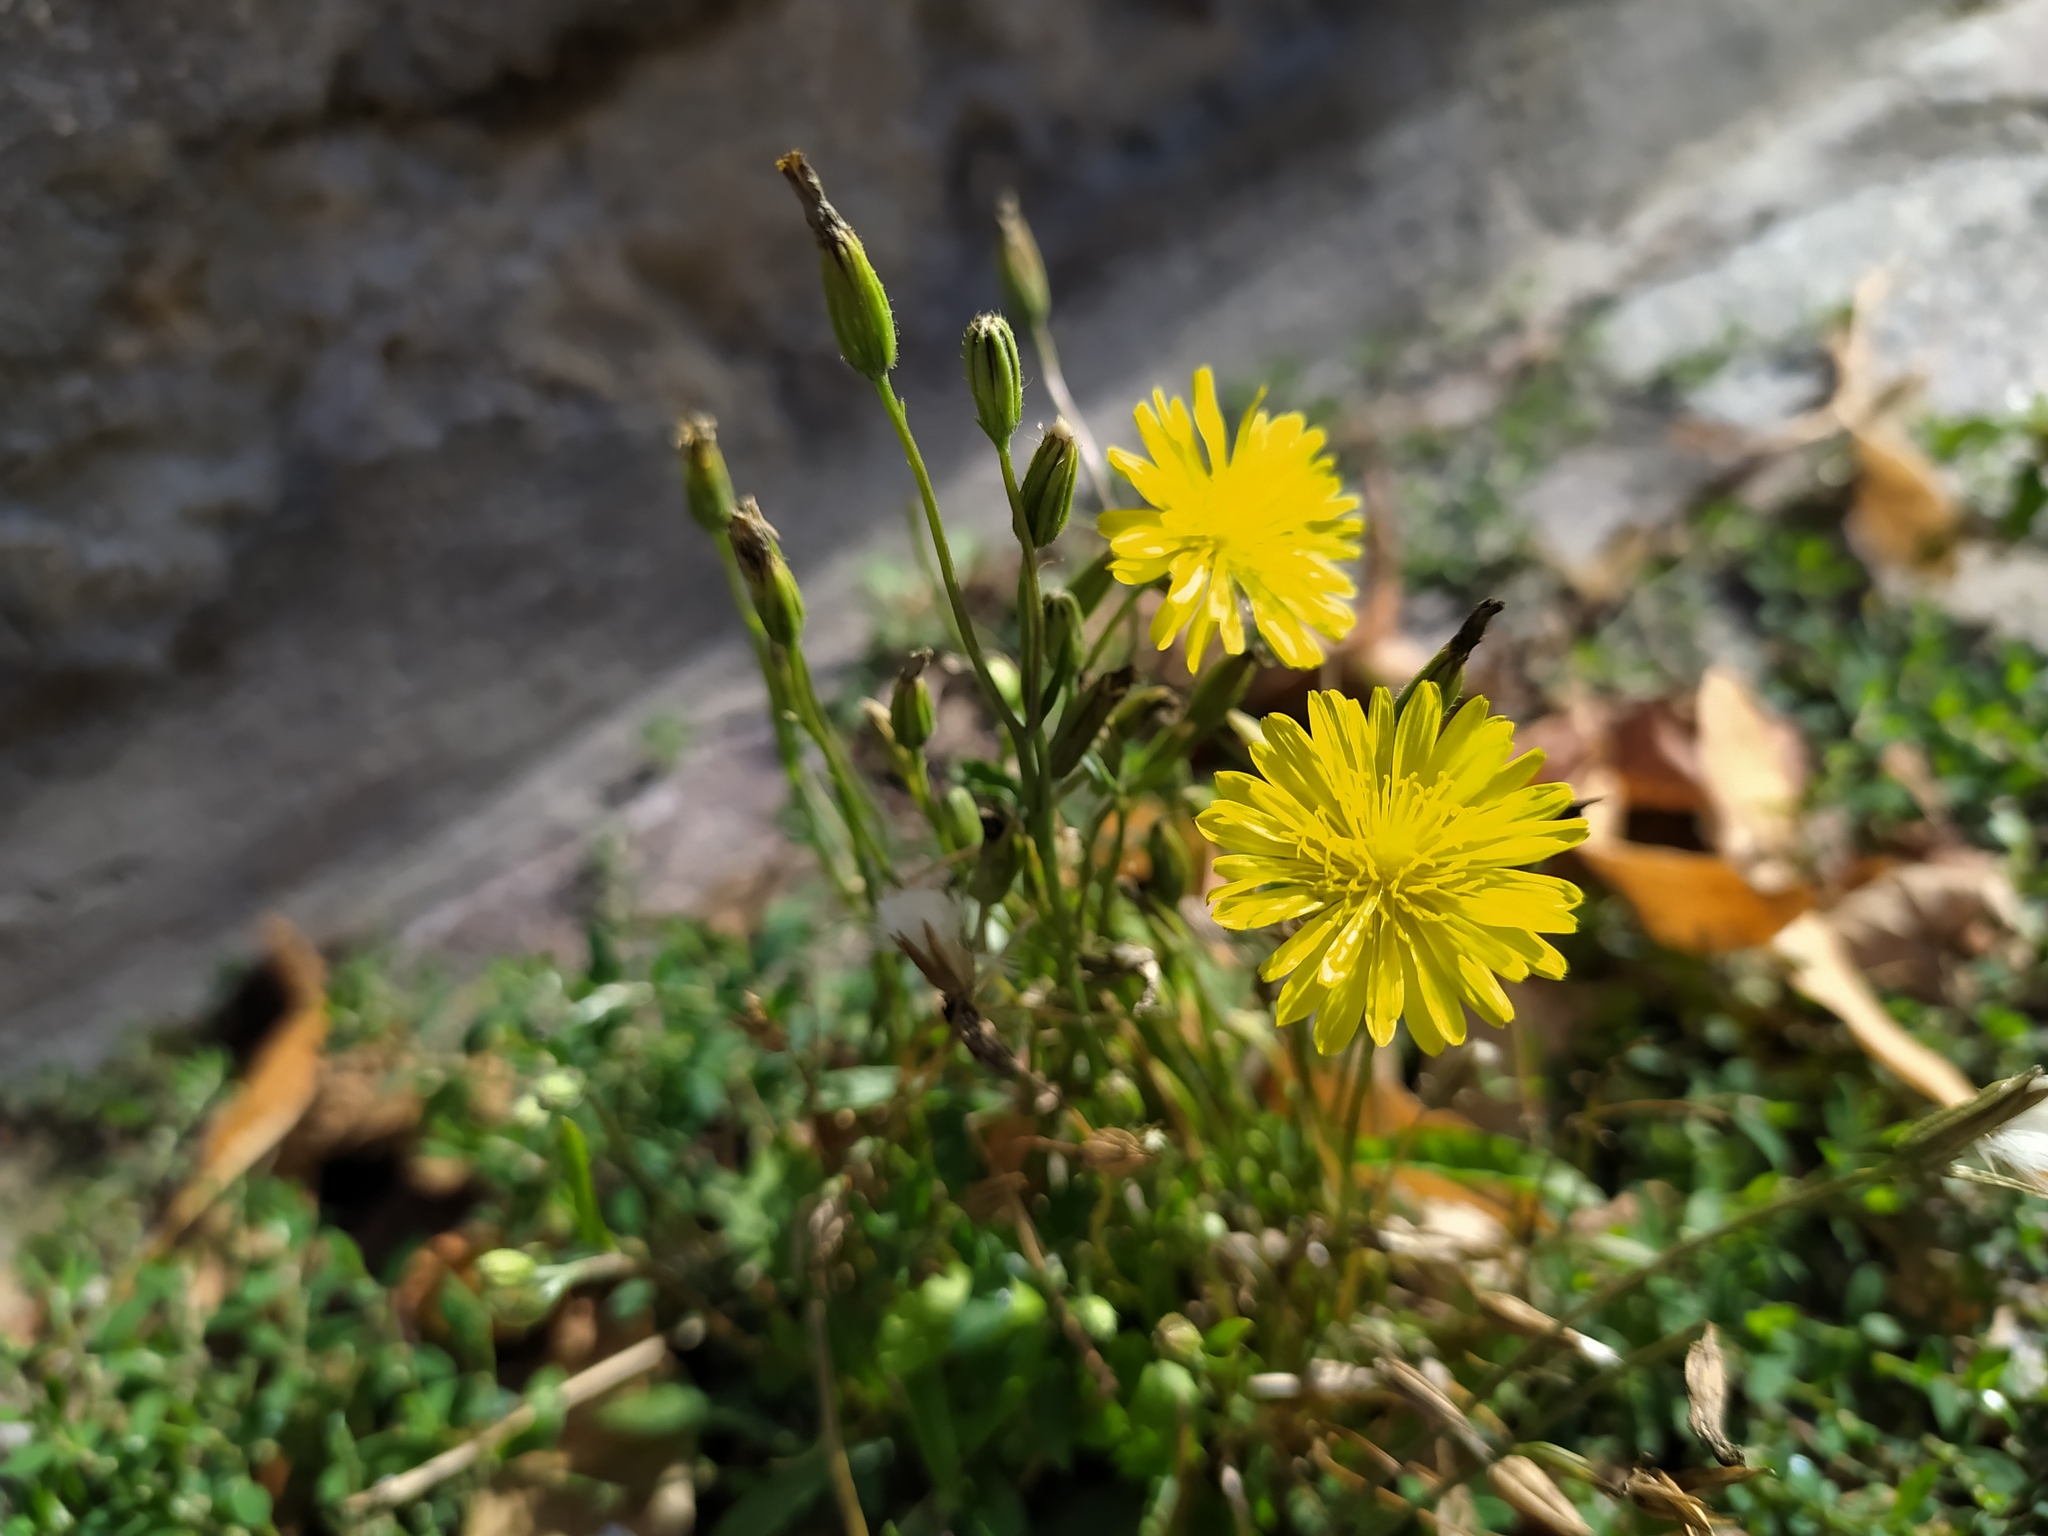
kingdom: Plantae
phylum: Tracheophyta
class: Magnoliopsida
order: Asterales
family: Asteraceae
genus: Crepis
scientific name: Crepis bursifolia
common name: Italian hawksbeard
